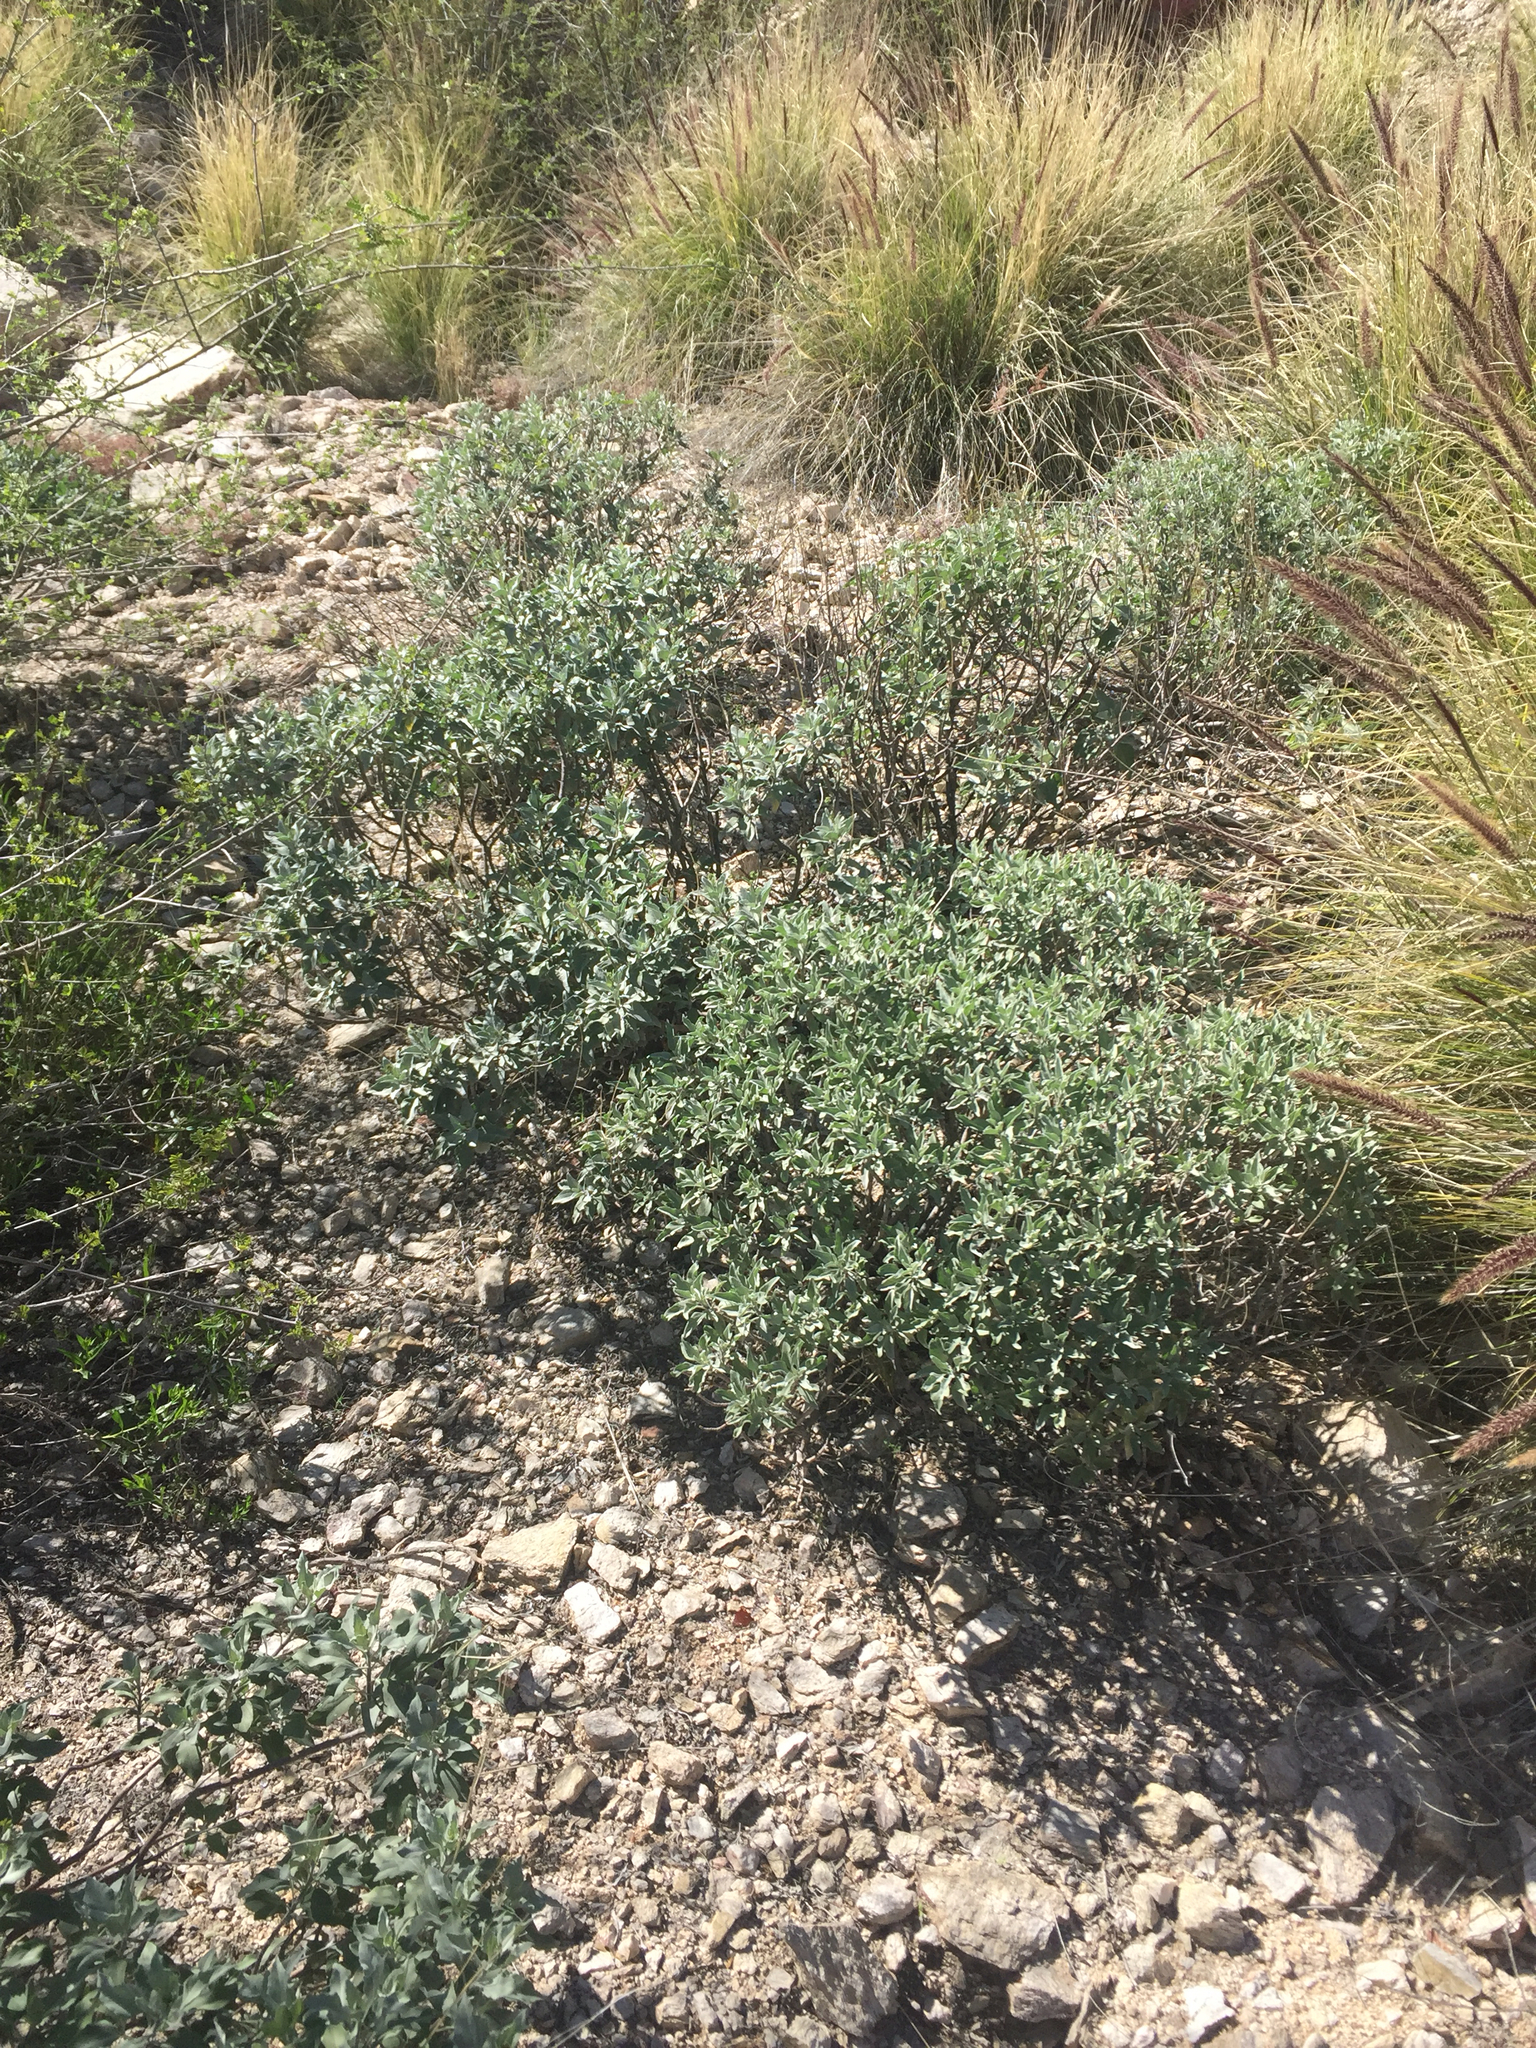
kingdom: Plantae
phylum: Tracheophyta
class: Magnoliopsida
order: Asterales
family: Asteraceae
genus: Encelia
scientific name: Encelia farinosa
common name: Brittlebush
